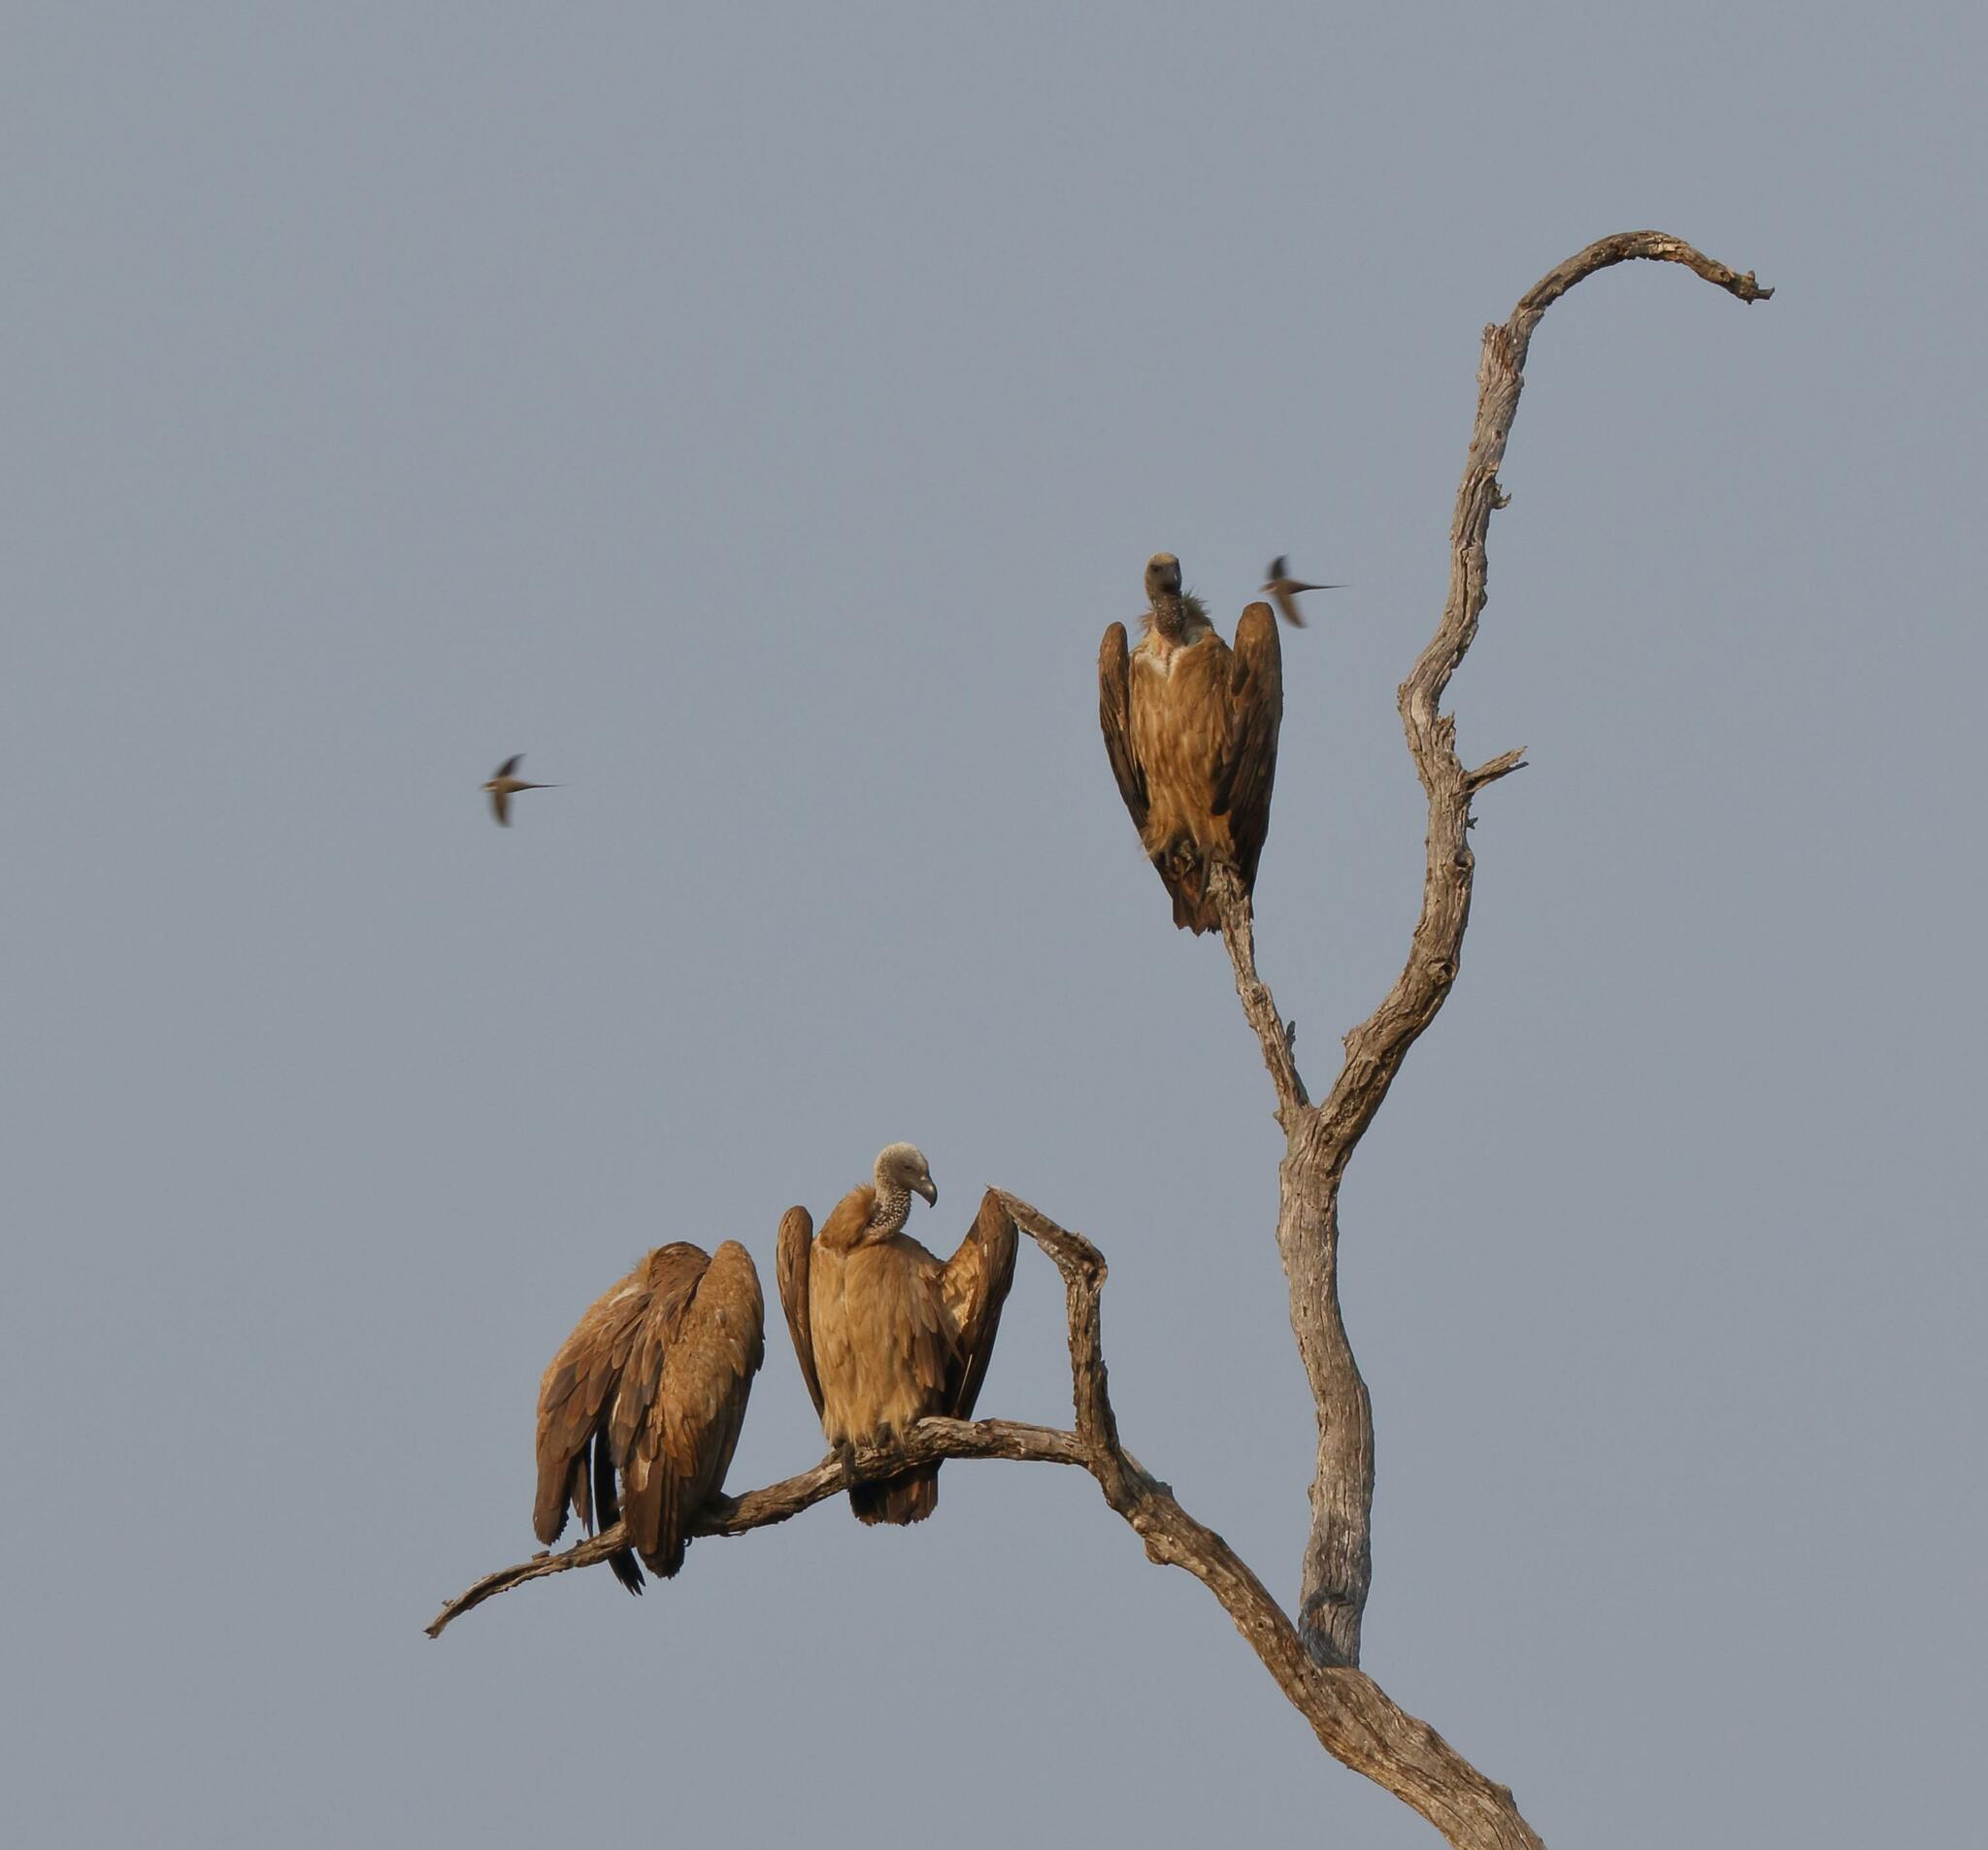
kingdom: Animalia
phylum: Chordata
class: Aves
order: Accipitriformes
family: Accipitridae
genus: Gyps
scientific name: Gyps africanus
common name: White-backed vulture
